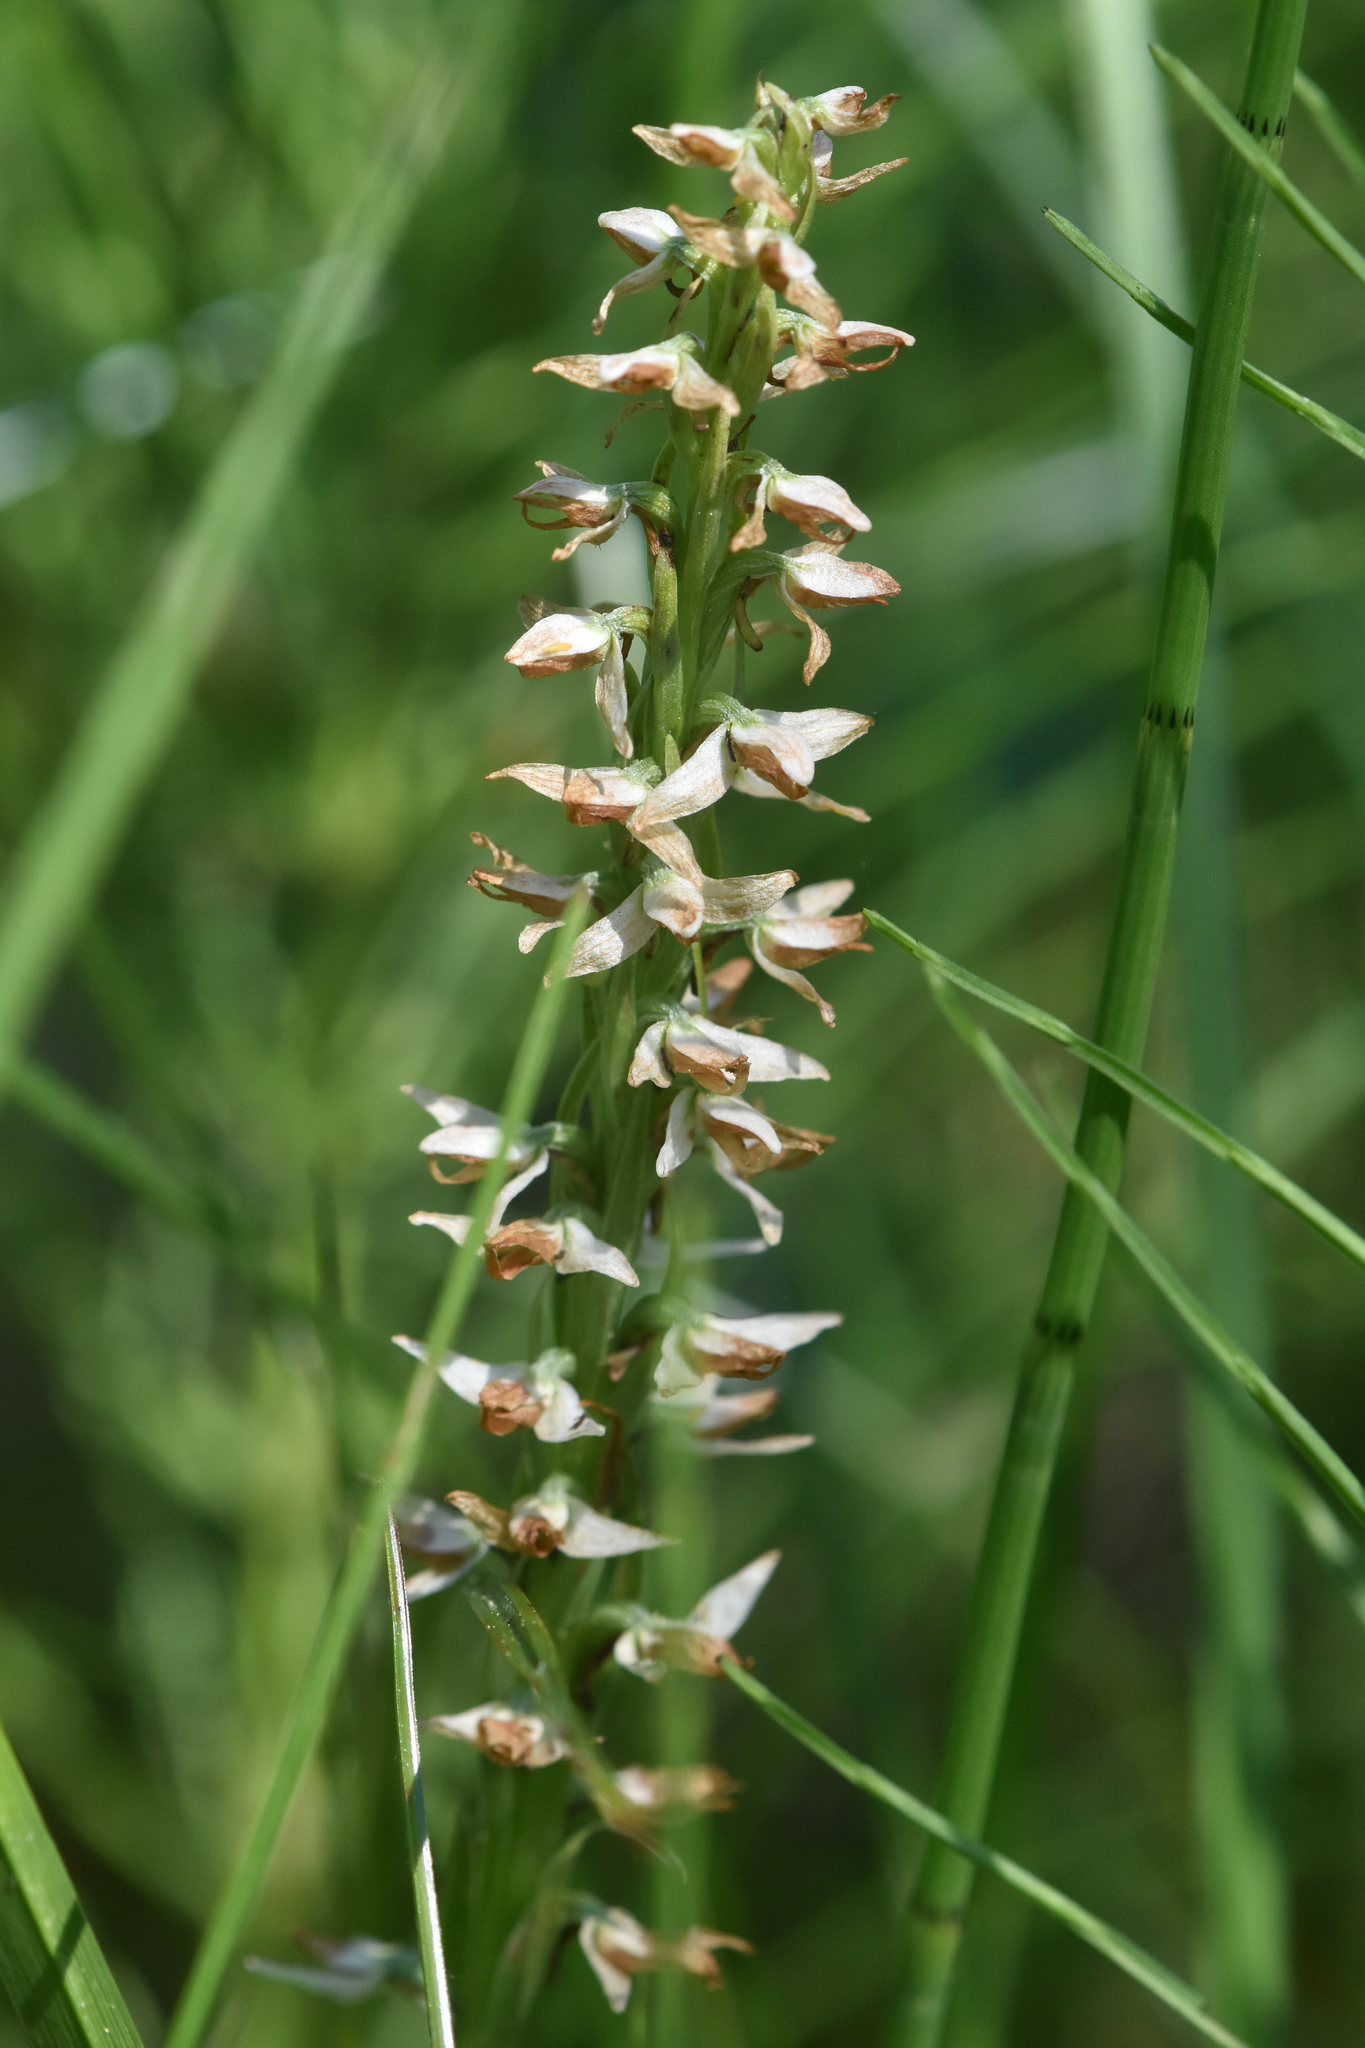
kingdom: Plantae
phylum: Tracheophyta
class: Liliopsida
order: Asparagales
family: Orchidaceae
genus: Platanthera
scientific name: Platanthera dilatata
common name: Bog candles
